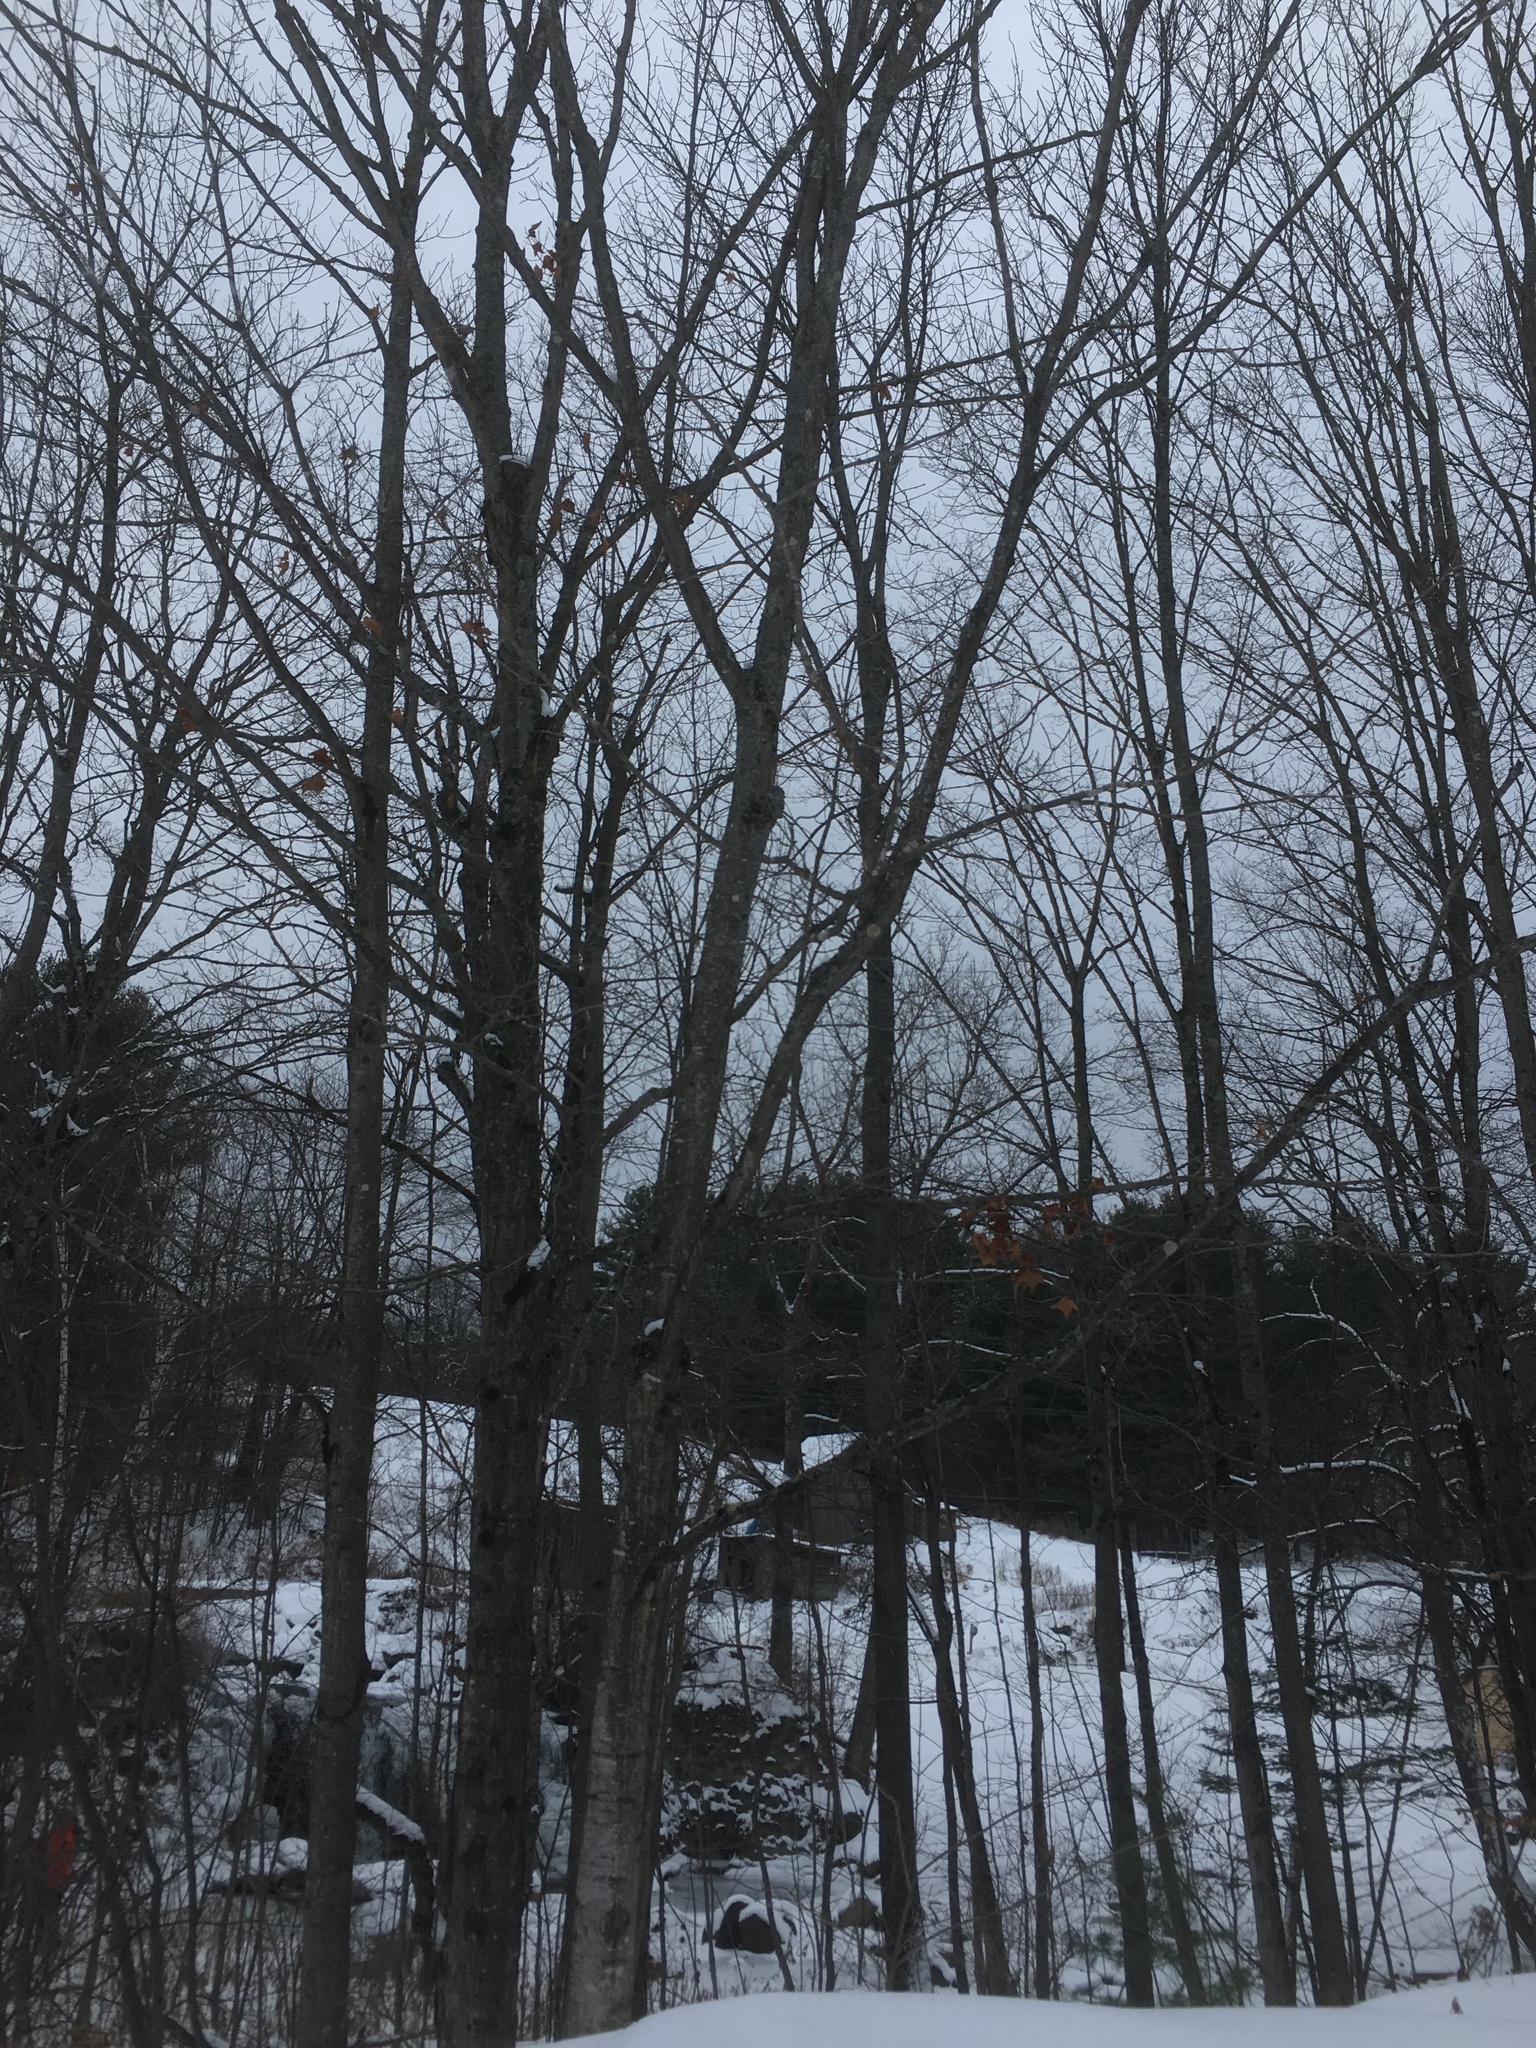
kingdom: Plantae
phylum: Tracheophyta
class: Magnoliopsida
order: Sapindales
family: Sapindaceae
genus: Acer
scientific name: Acer saccharum
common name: Sugar maple
